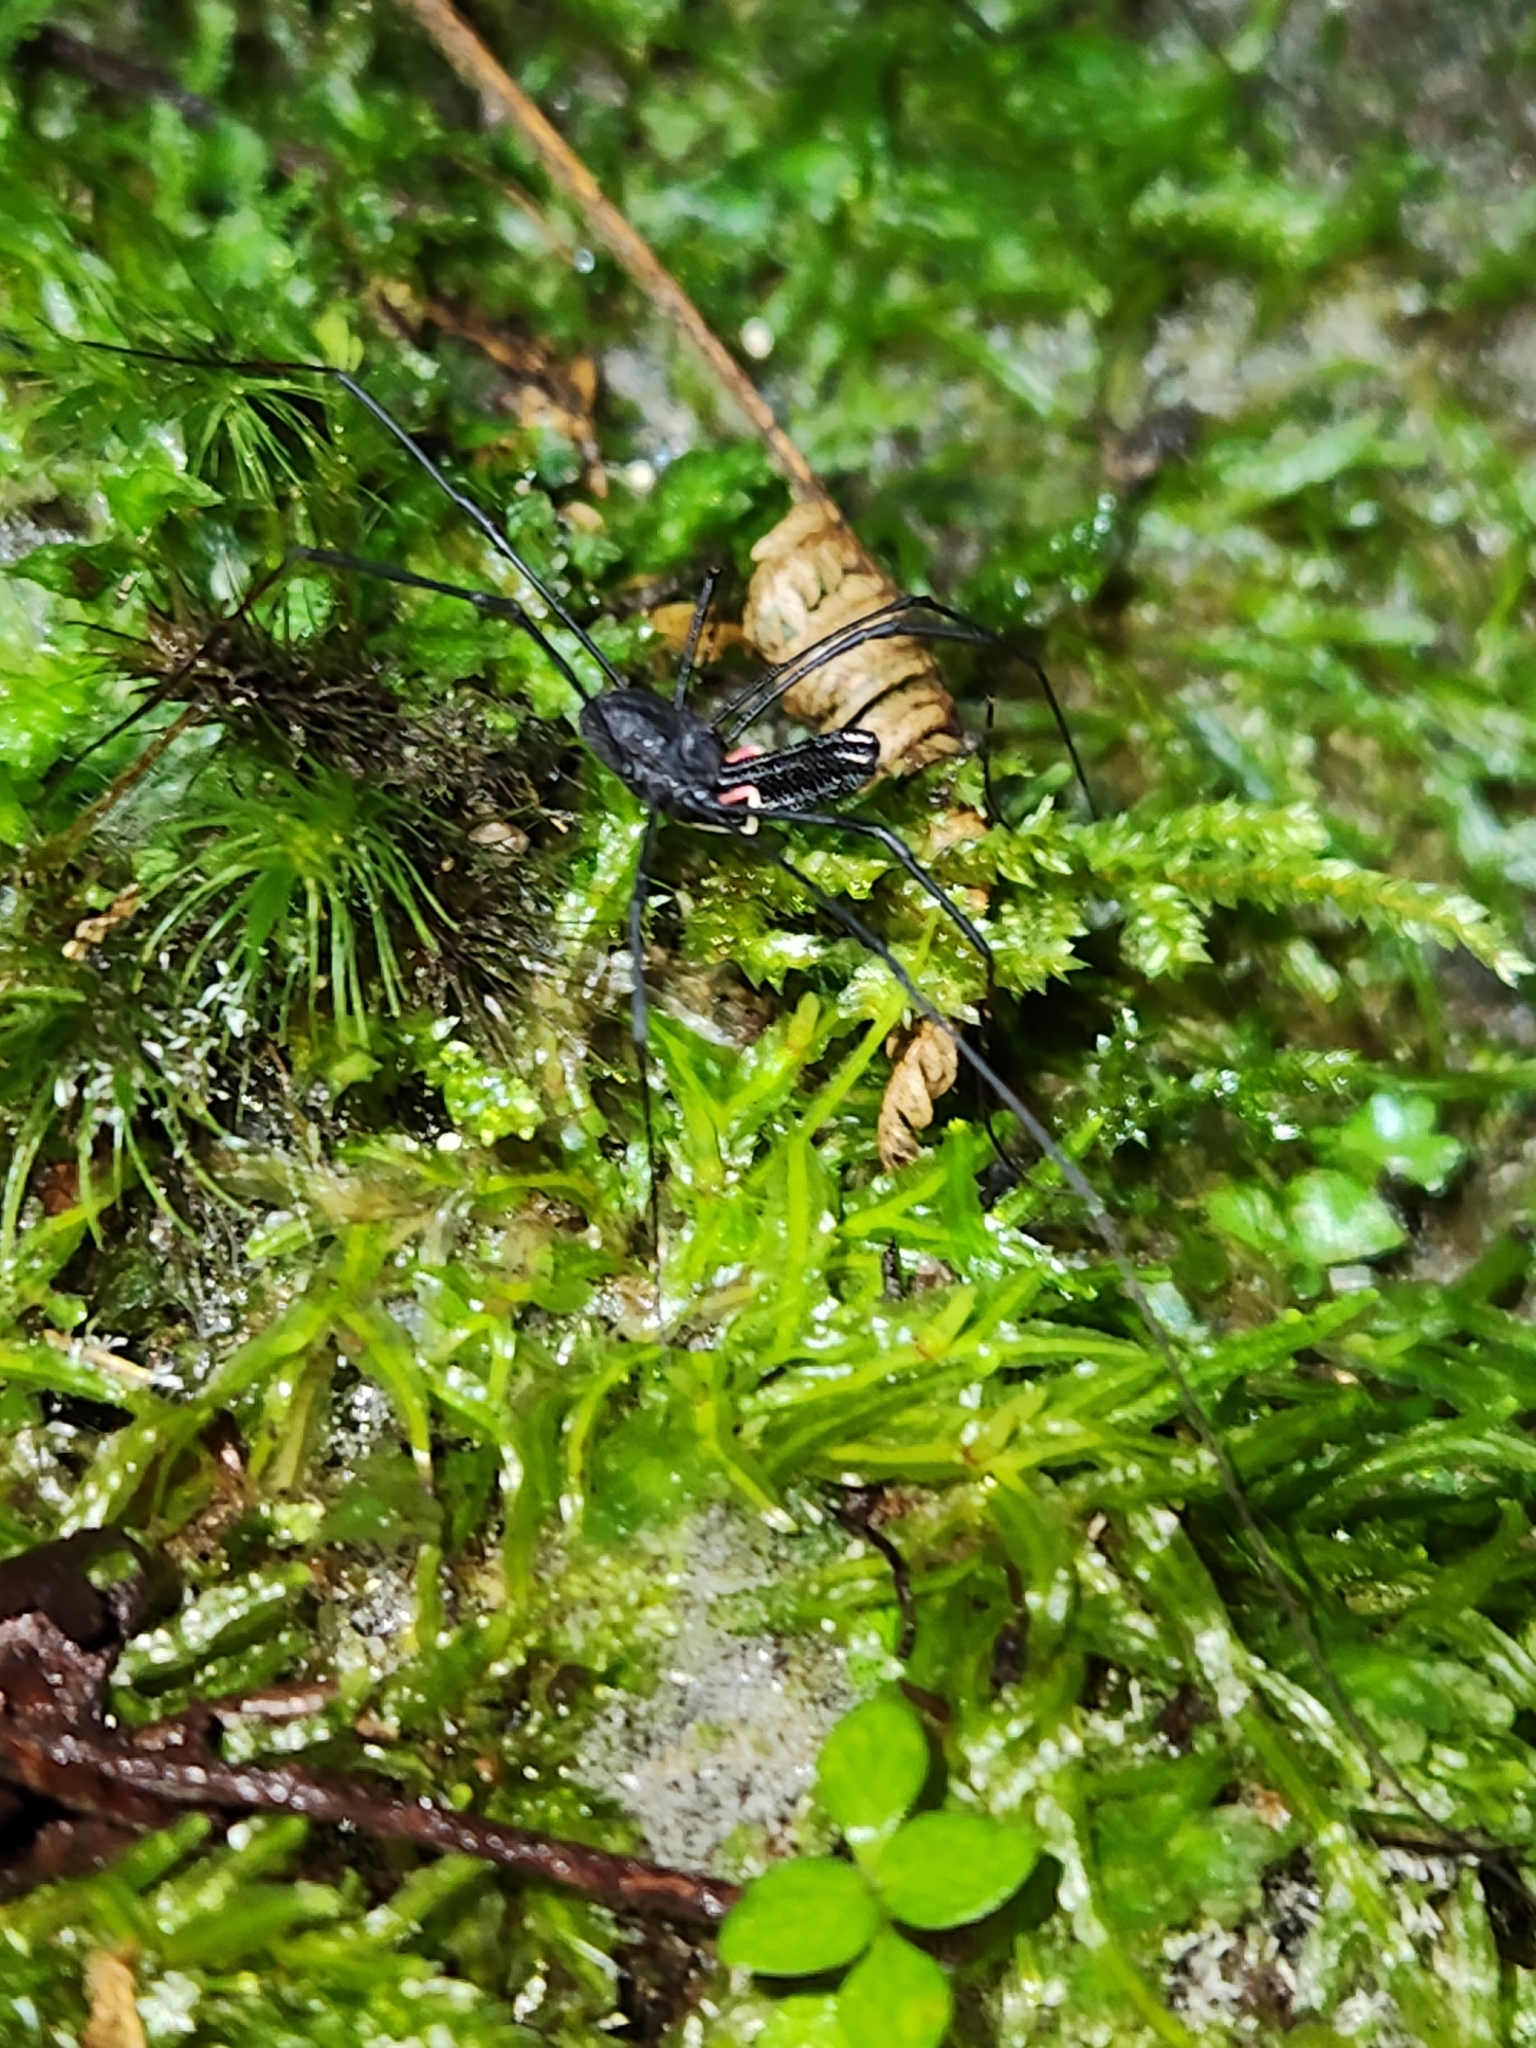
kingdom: Animalia
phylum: Arthropoda
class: Arachnida
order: Opiliones
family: Neopilionidae
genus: Forsteropsalis
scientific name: Forsteropsalis inconstans
